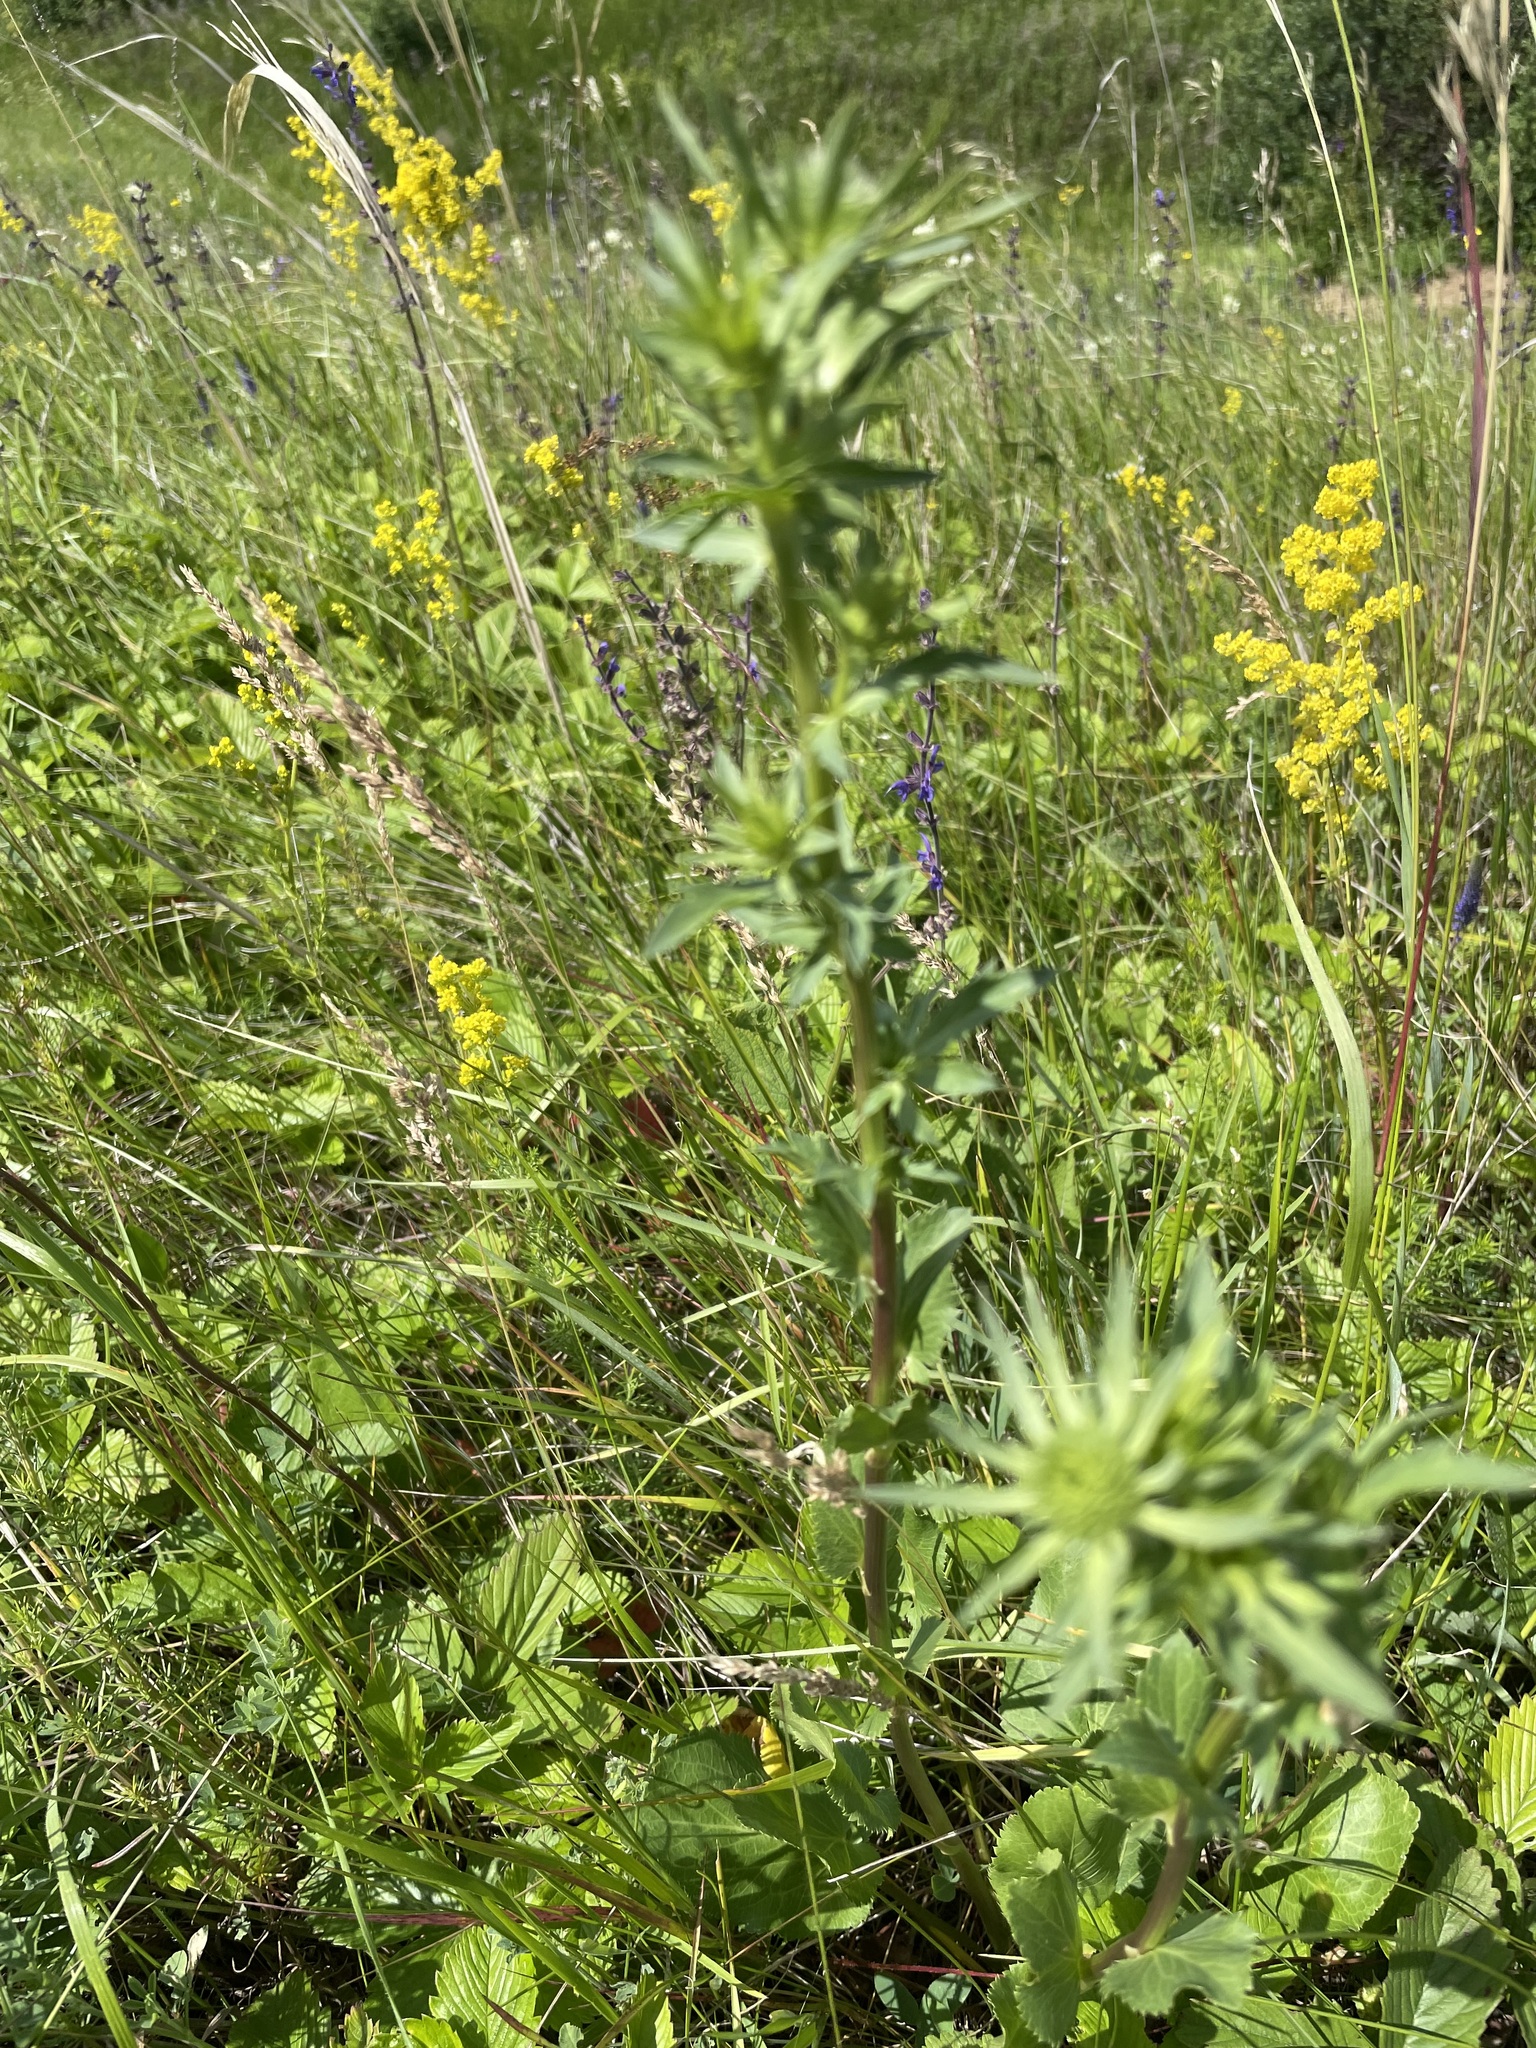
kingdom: Plantae
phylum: Tracheophyta
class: Magnoliopsida
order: Apiales
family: Apiaceae
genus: Eryngium
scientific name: Eryngium planum
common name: Blue eryngo
